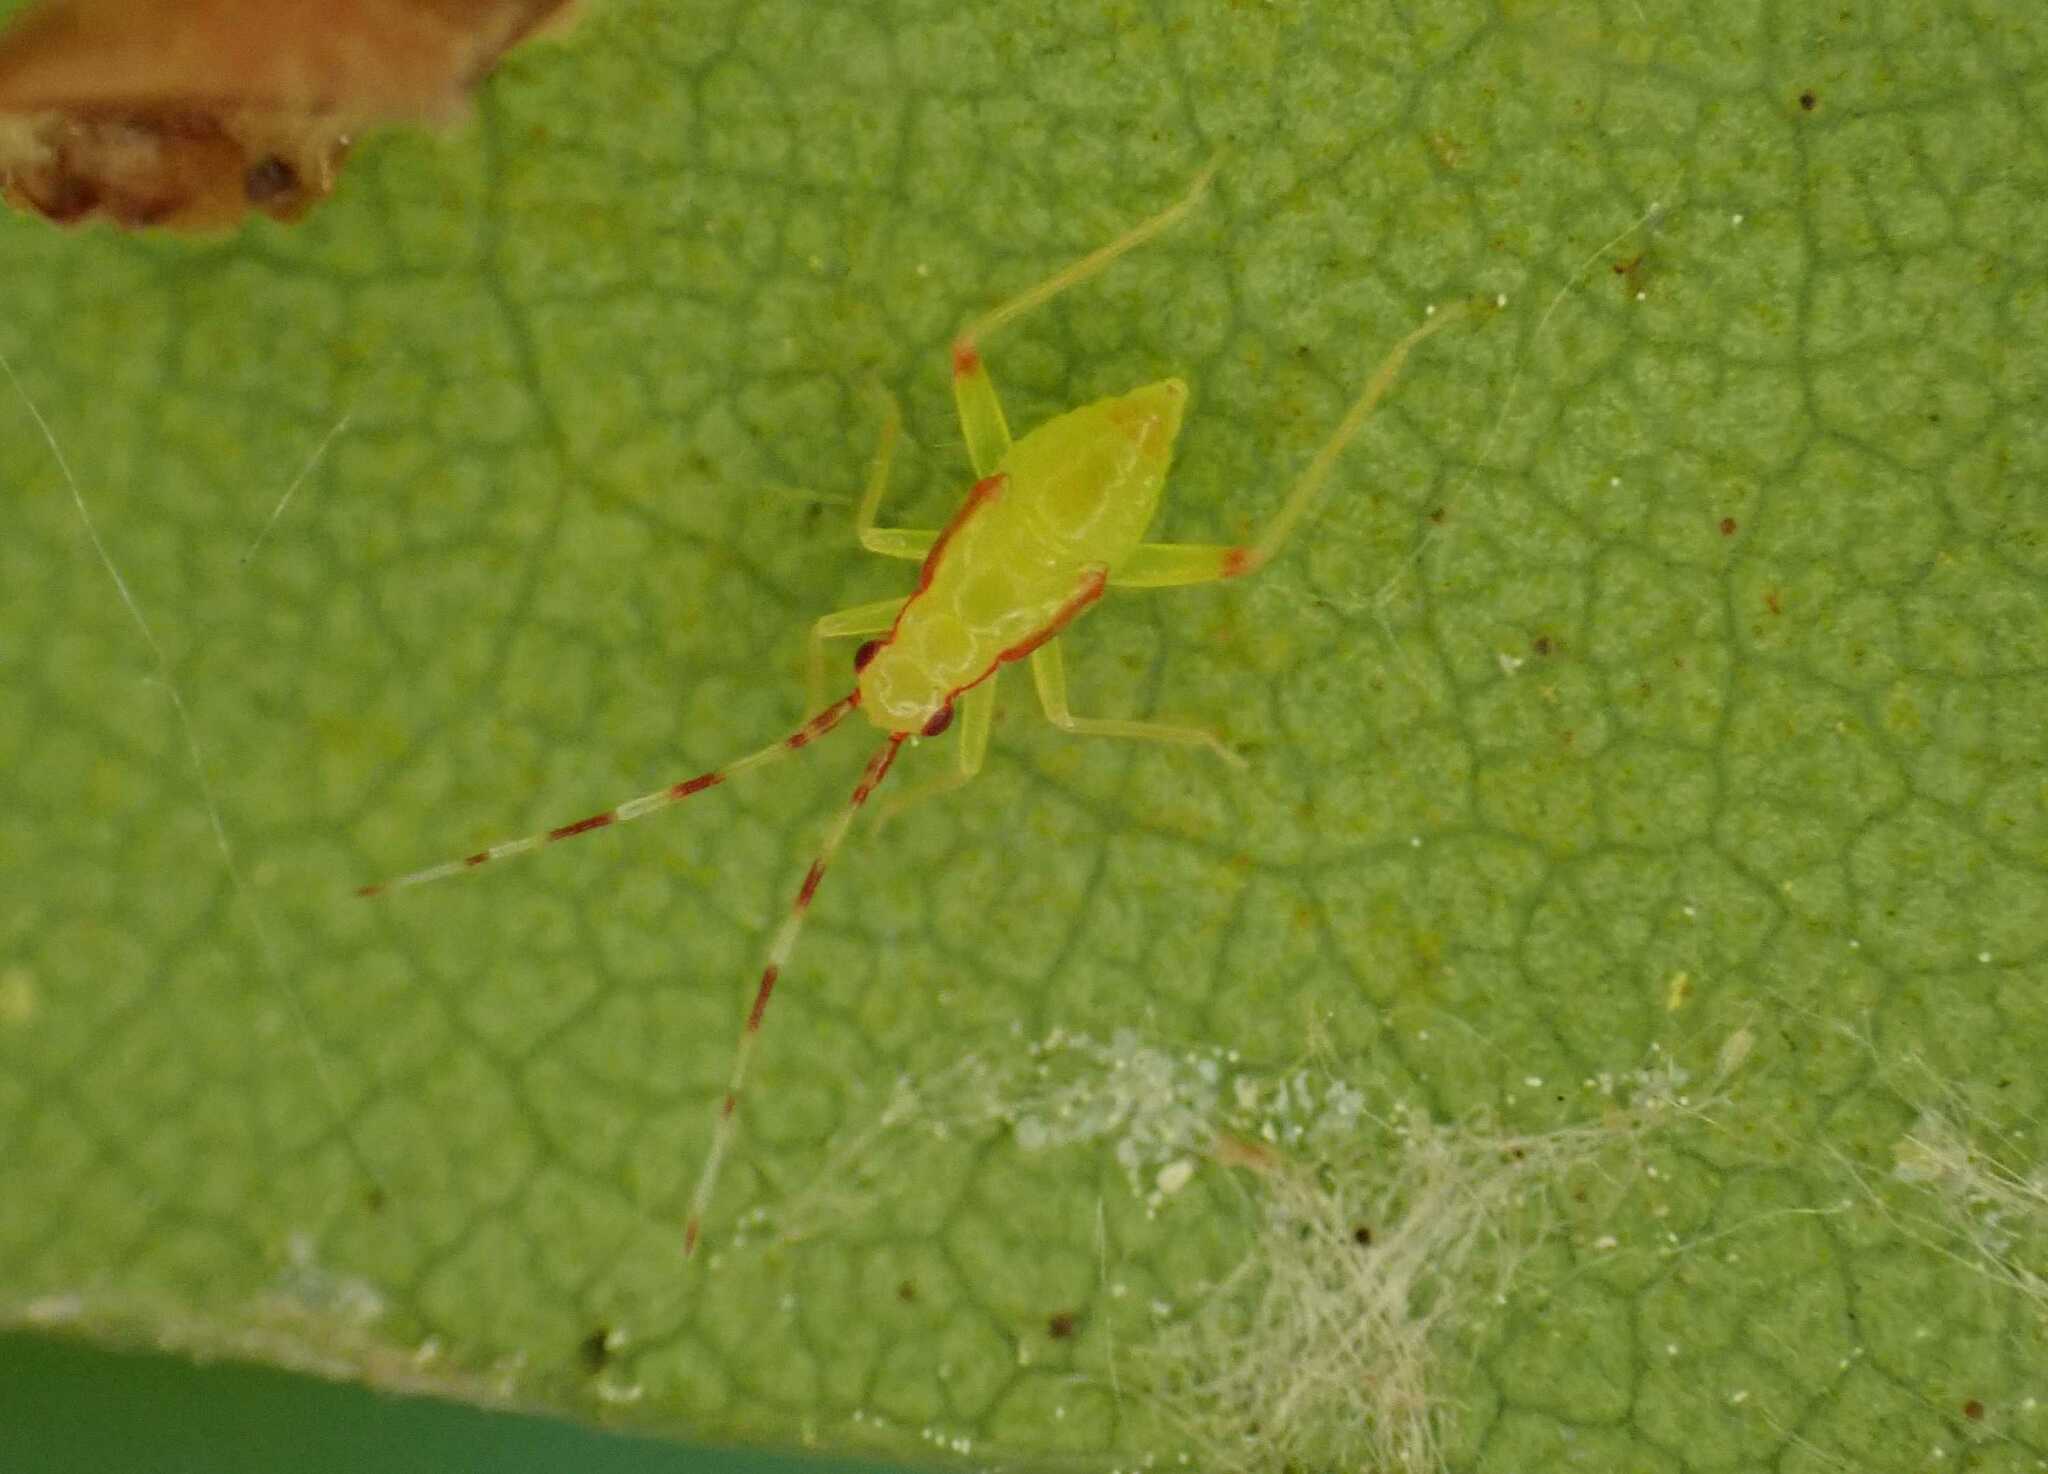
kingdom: Animalia
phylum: Arthropoda
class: Insecta
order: Hemiptera
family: Miridae
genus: Campyloneura
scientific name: Campyloneura virgula
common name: Predatory bug
